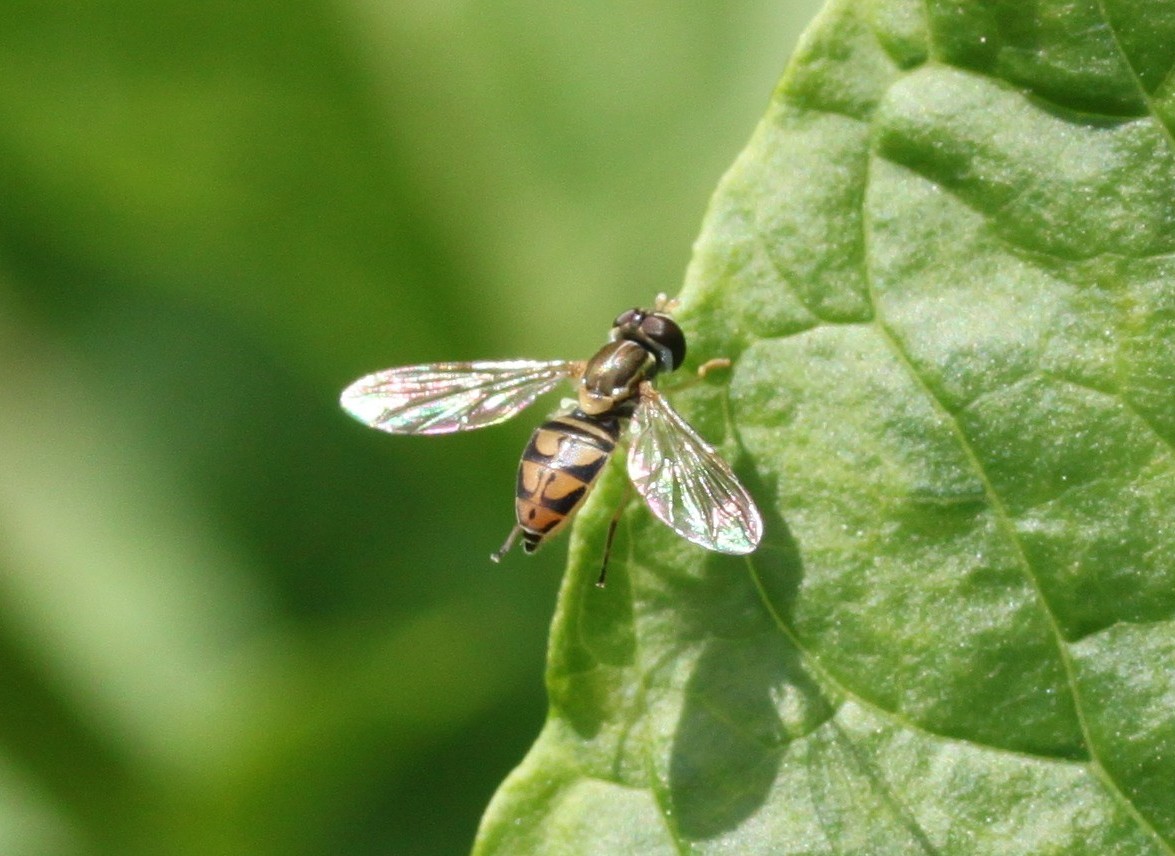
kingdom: Animalia
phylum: Arthropoda
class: Insecta
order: Diptera
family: Syrphidae
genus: Toxomerus
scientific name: Toxomerus marginatus
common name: Syrphid fly
